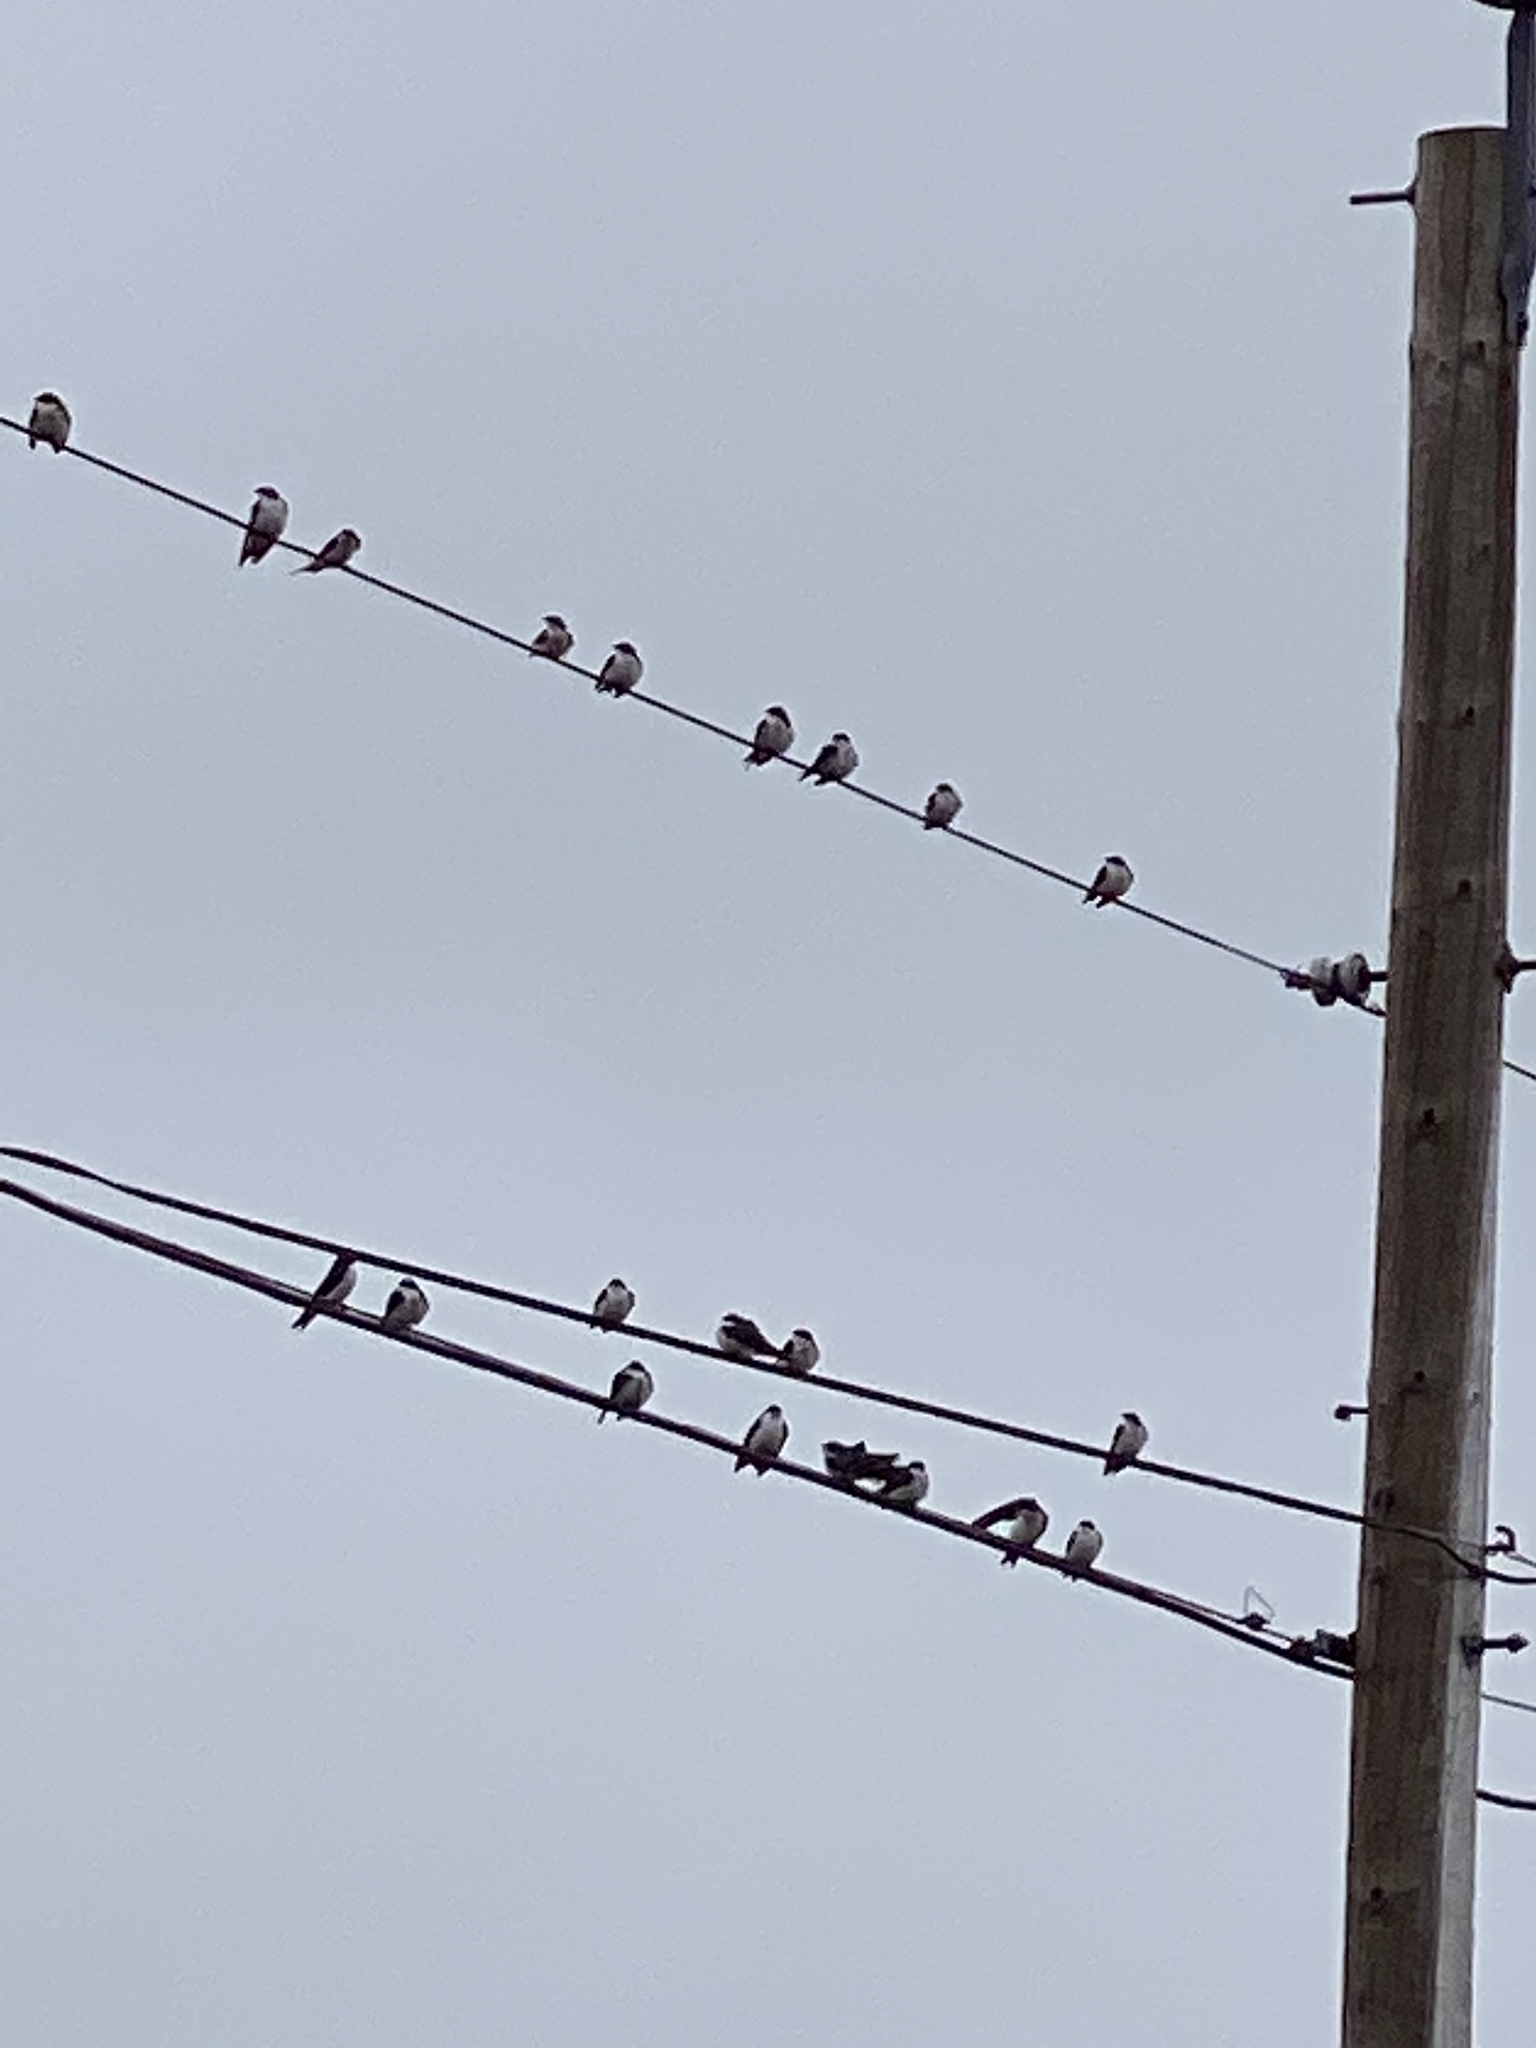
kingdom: Animalia
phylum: Chordata
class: Aves
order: Passeriformes
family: Hirundinidae
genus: Tachycineta
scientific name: Tachycineta bicolor
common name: Tree swallow
